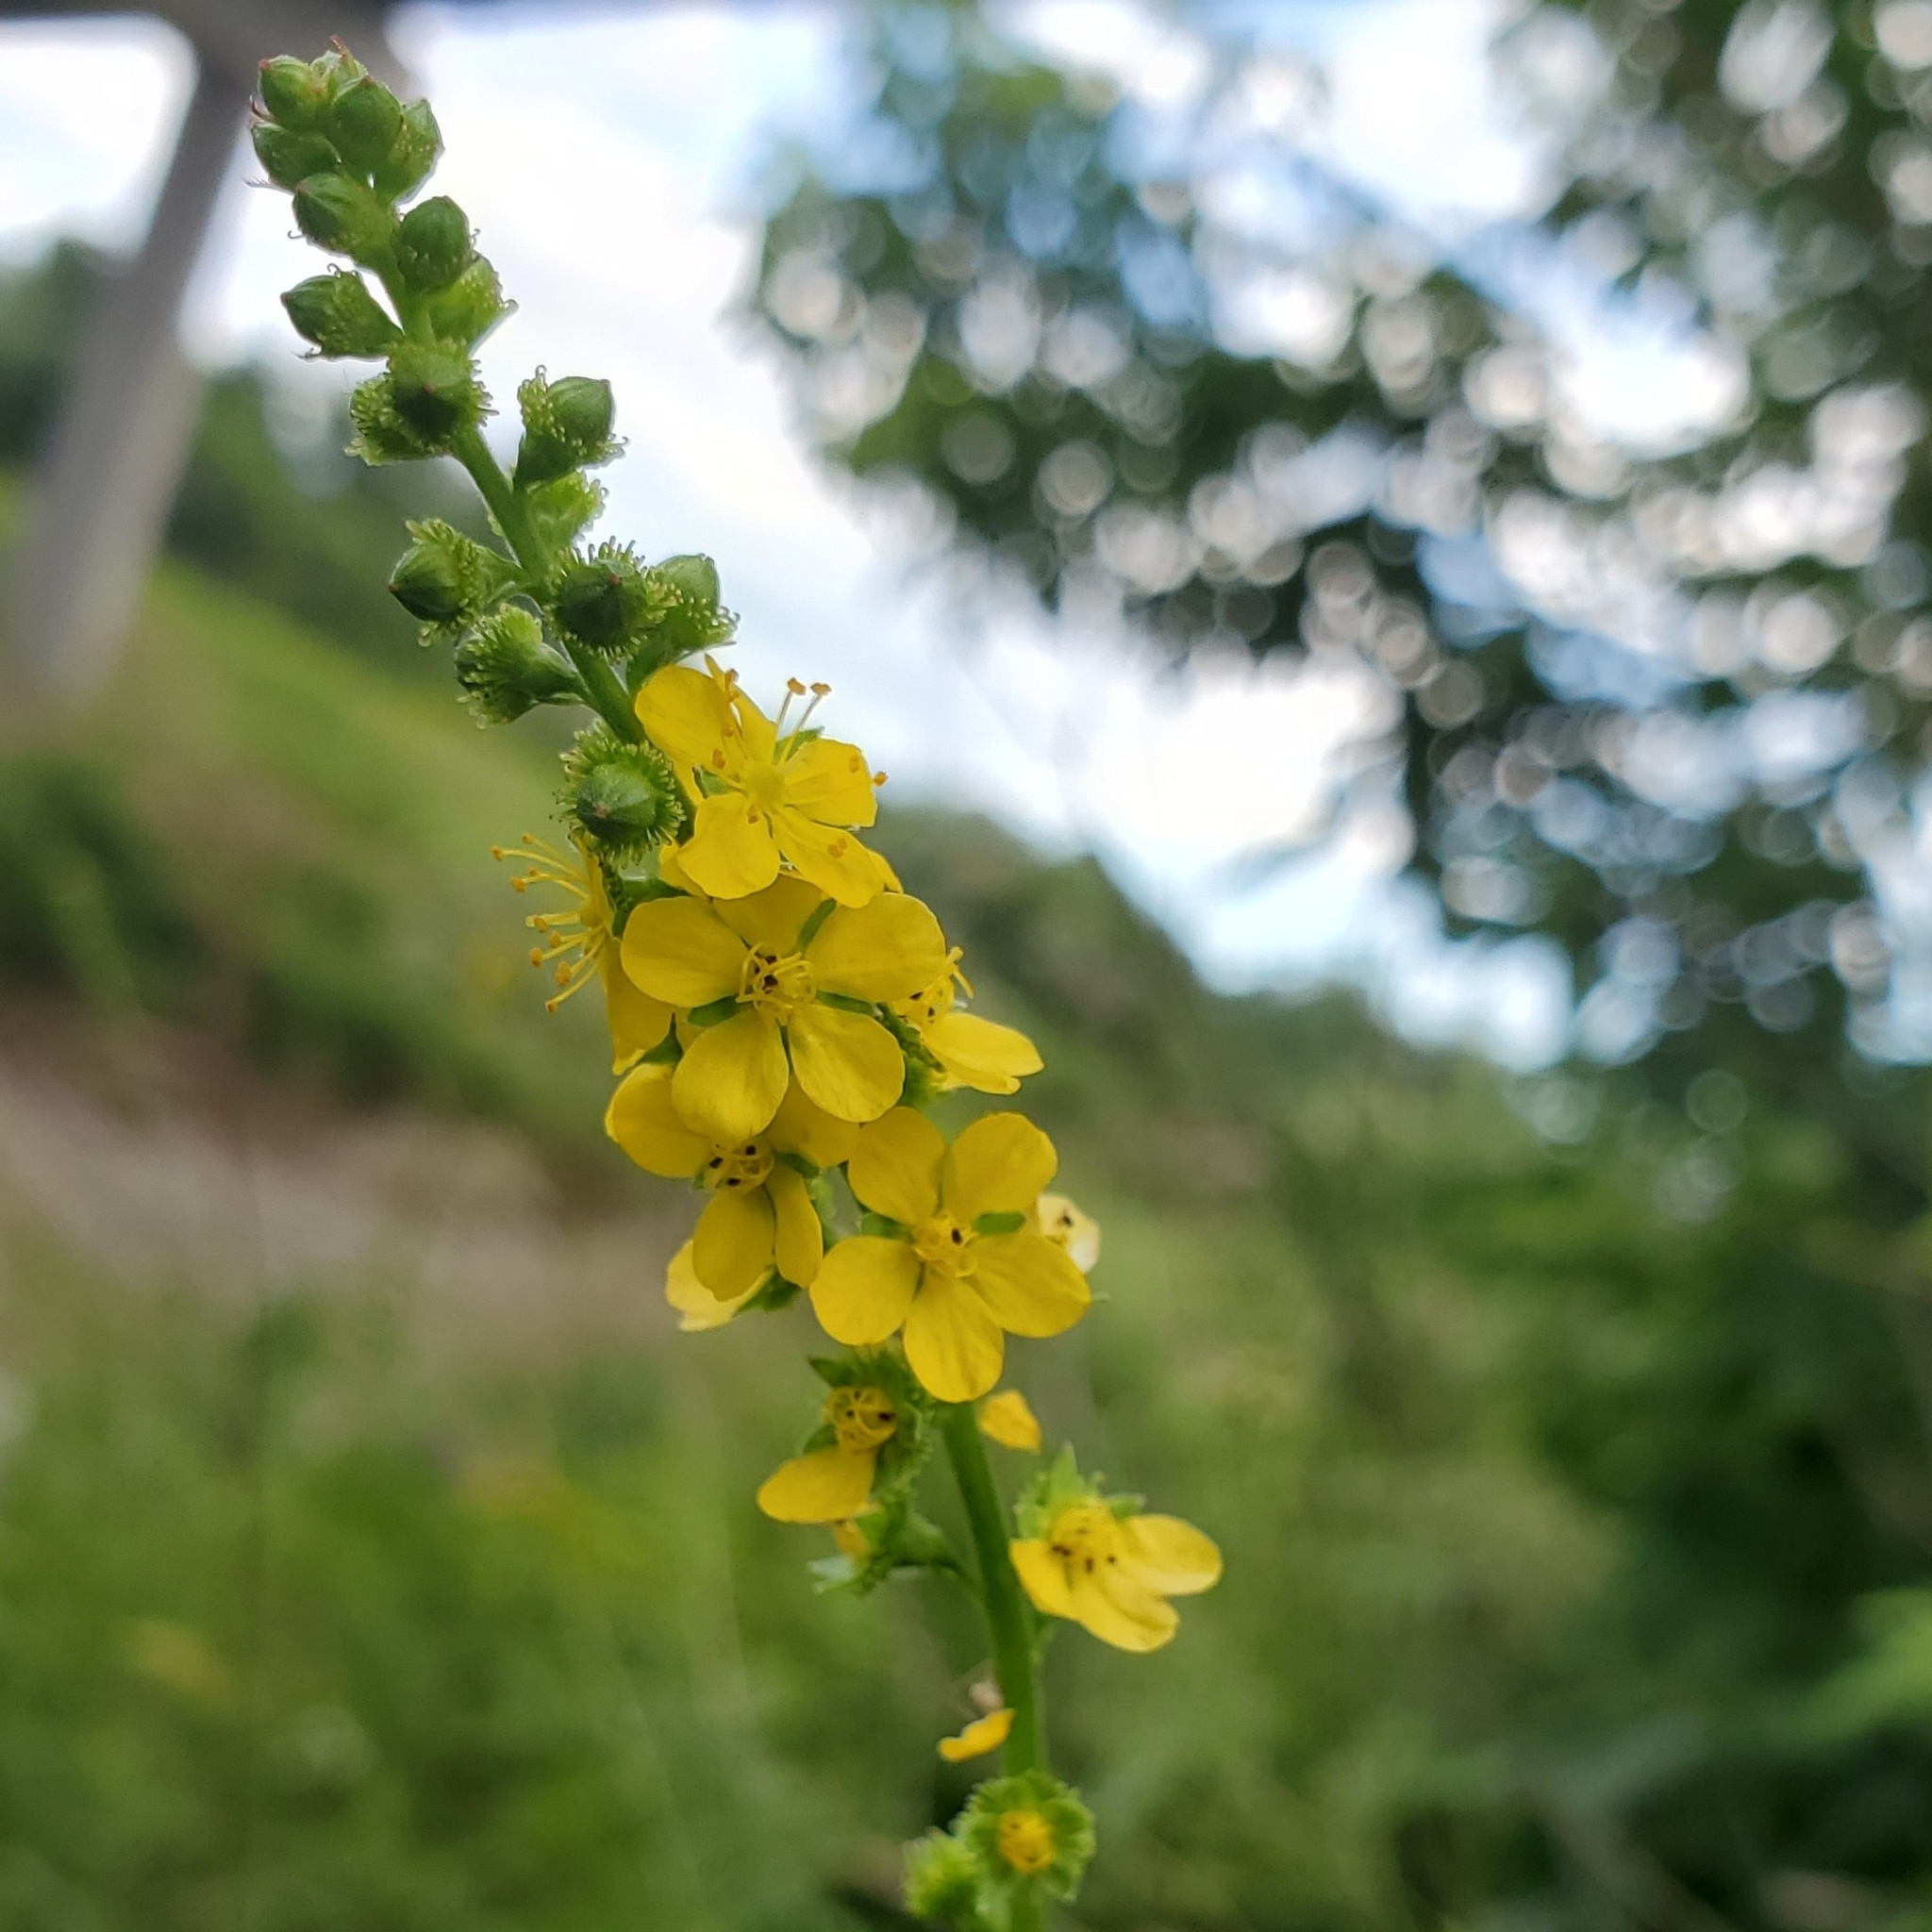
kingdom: Plantae
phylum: Tracheophyta
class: Magnoliopsida
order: Rosales
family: Rosaceae
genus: Agrimonia
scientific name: Agrimonia striata
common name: Britton's agrimony
